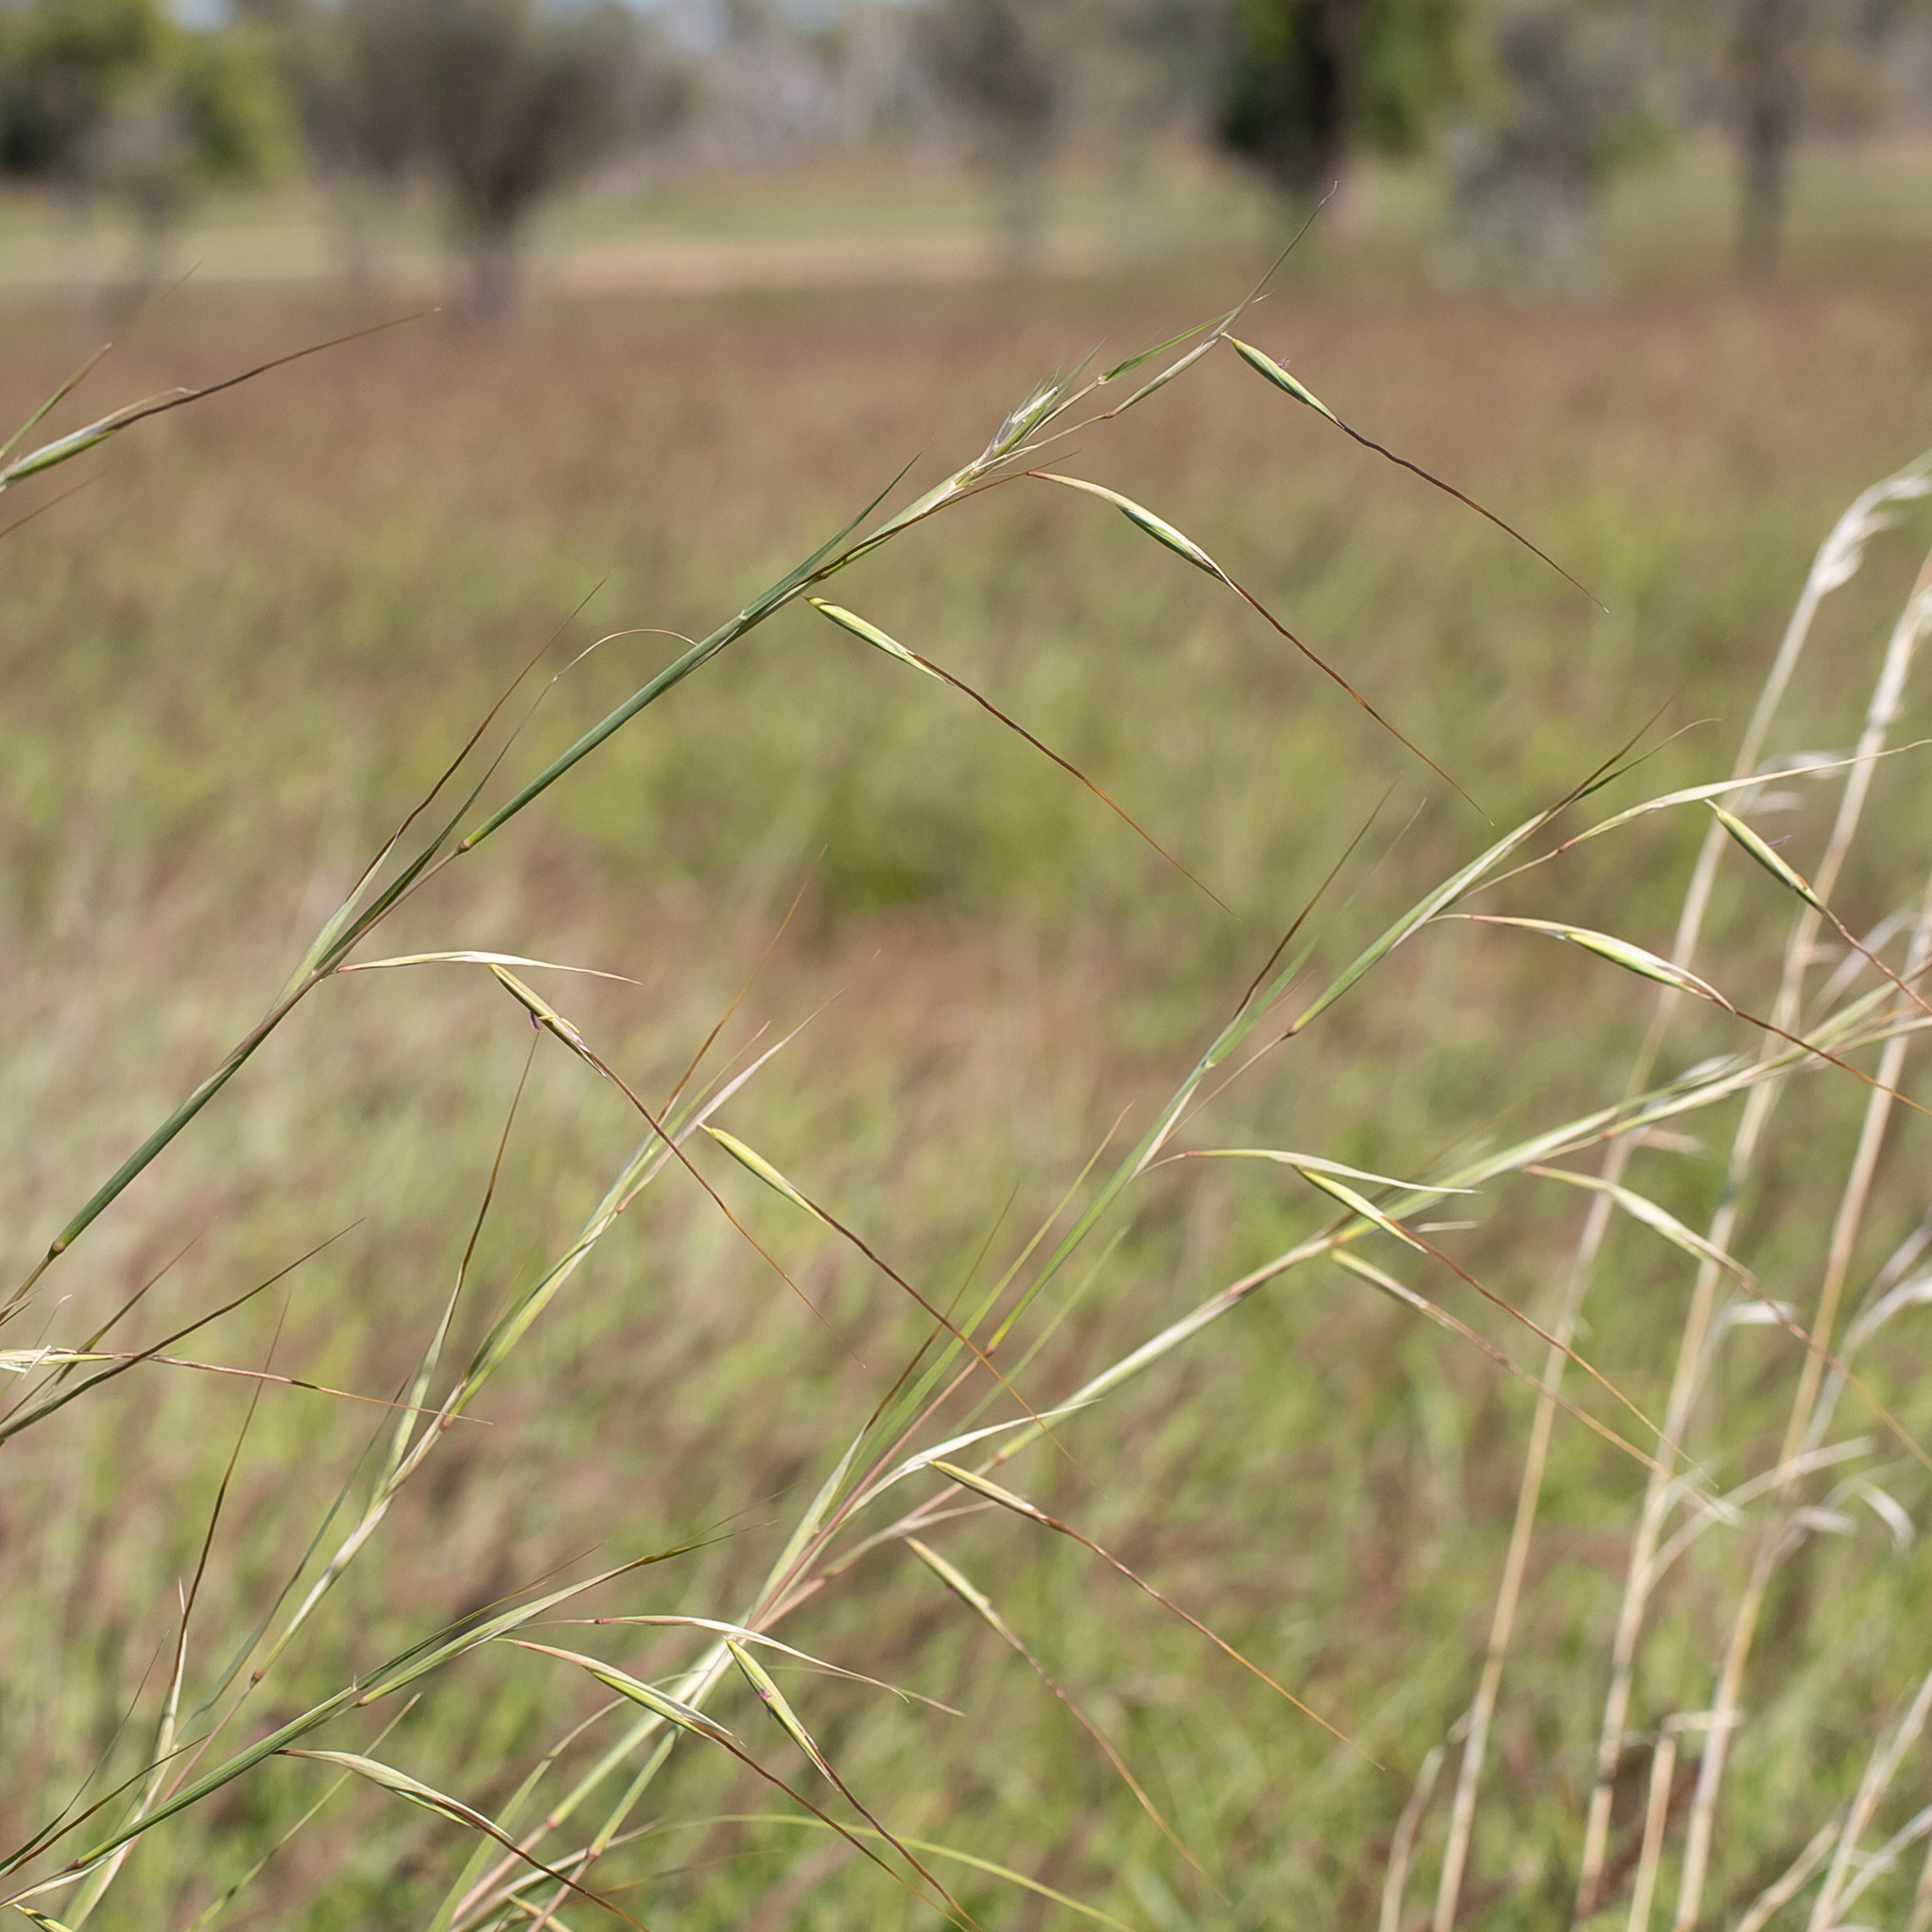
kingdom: Plantae
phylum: Tracheophyta
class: Liliopsida
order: Poales
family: Poaceae
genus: Themeda
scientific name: Themeda avenacea
